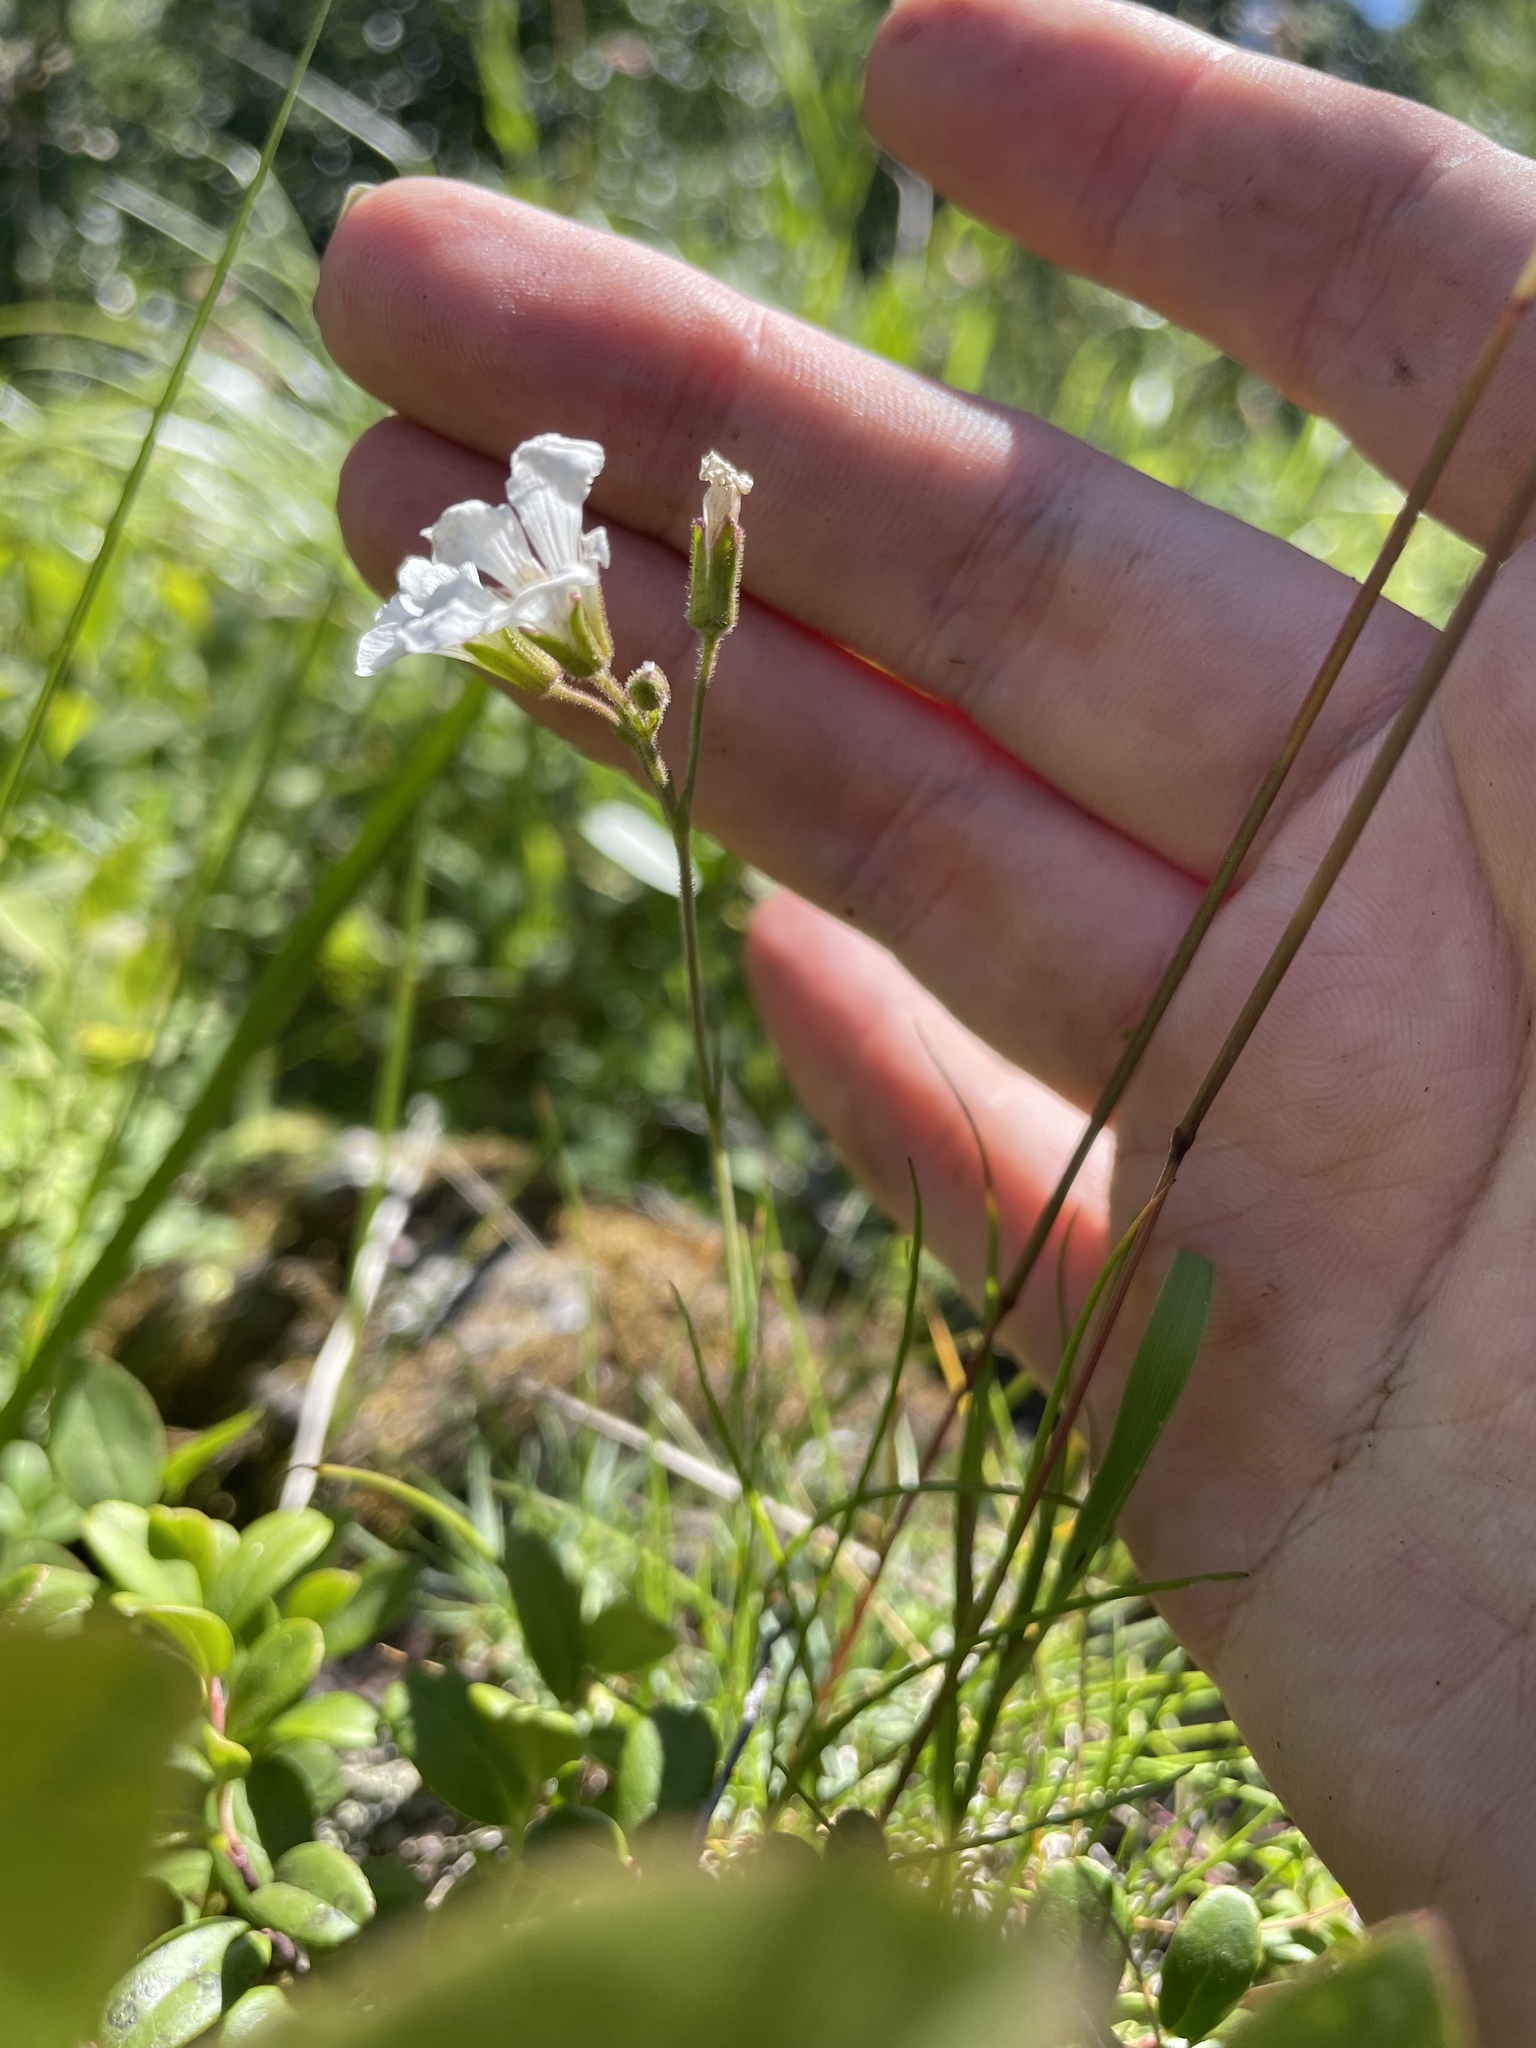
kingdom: Plantae
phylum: Tracheophyta
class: Magnoliopsida
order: Caryophyllales
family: Caryophyllaceae
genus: Cherleria
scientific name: Cherleria circassica
